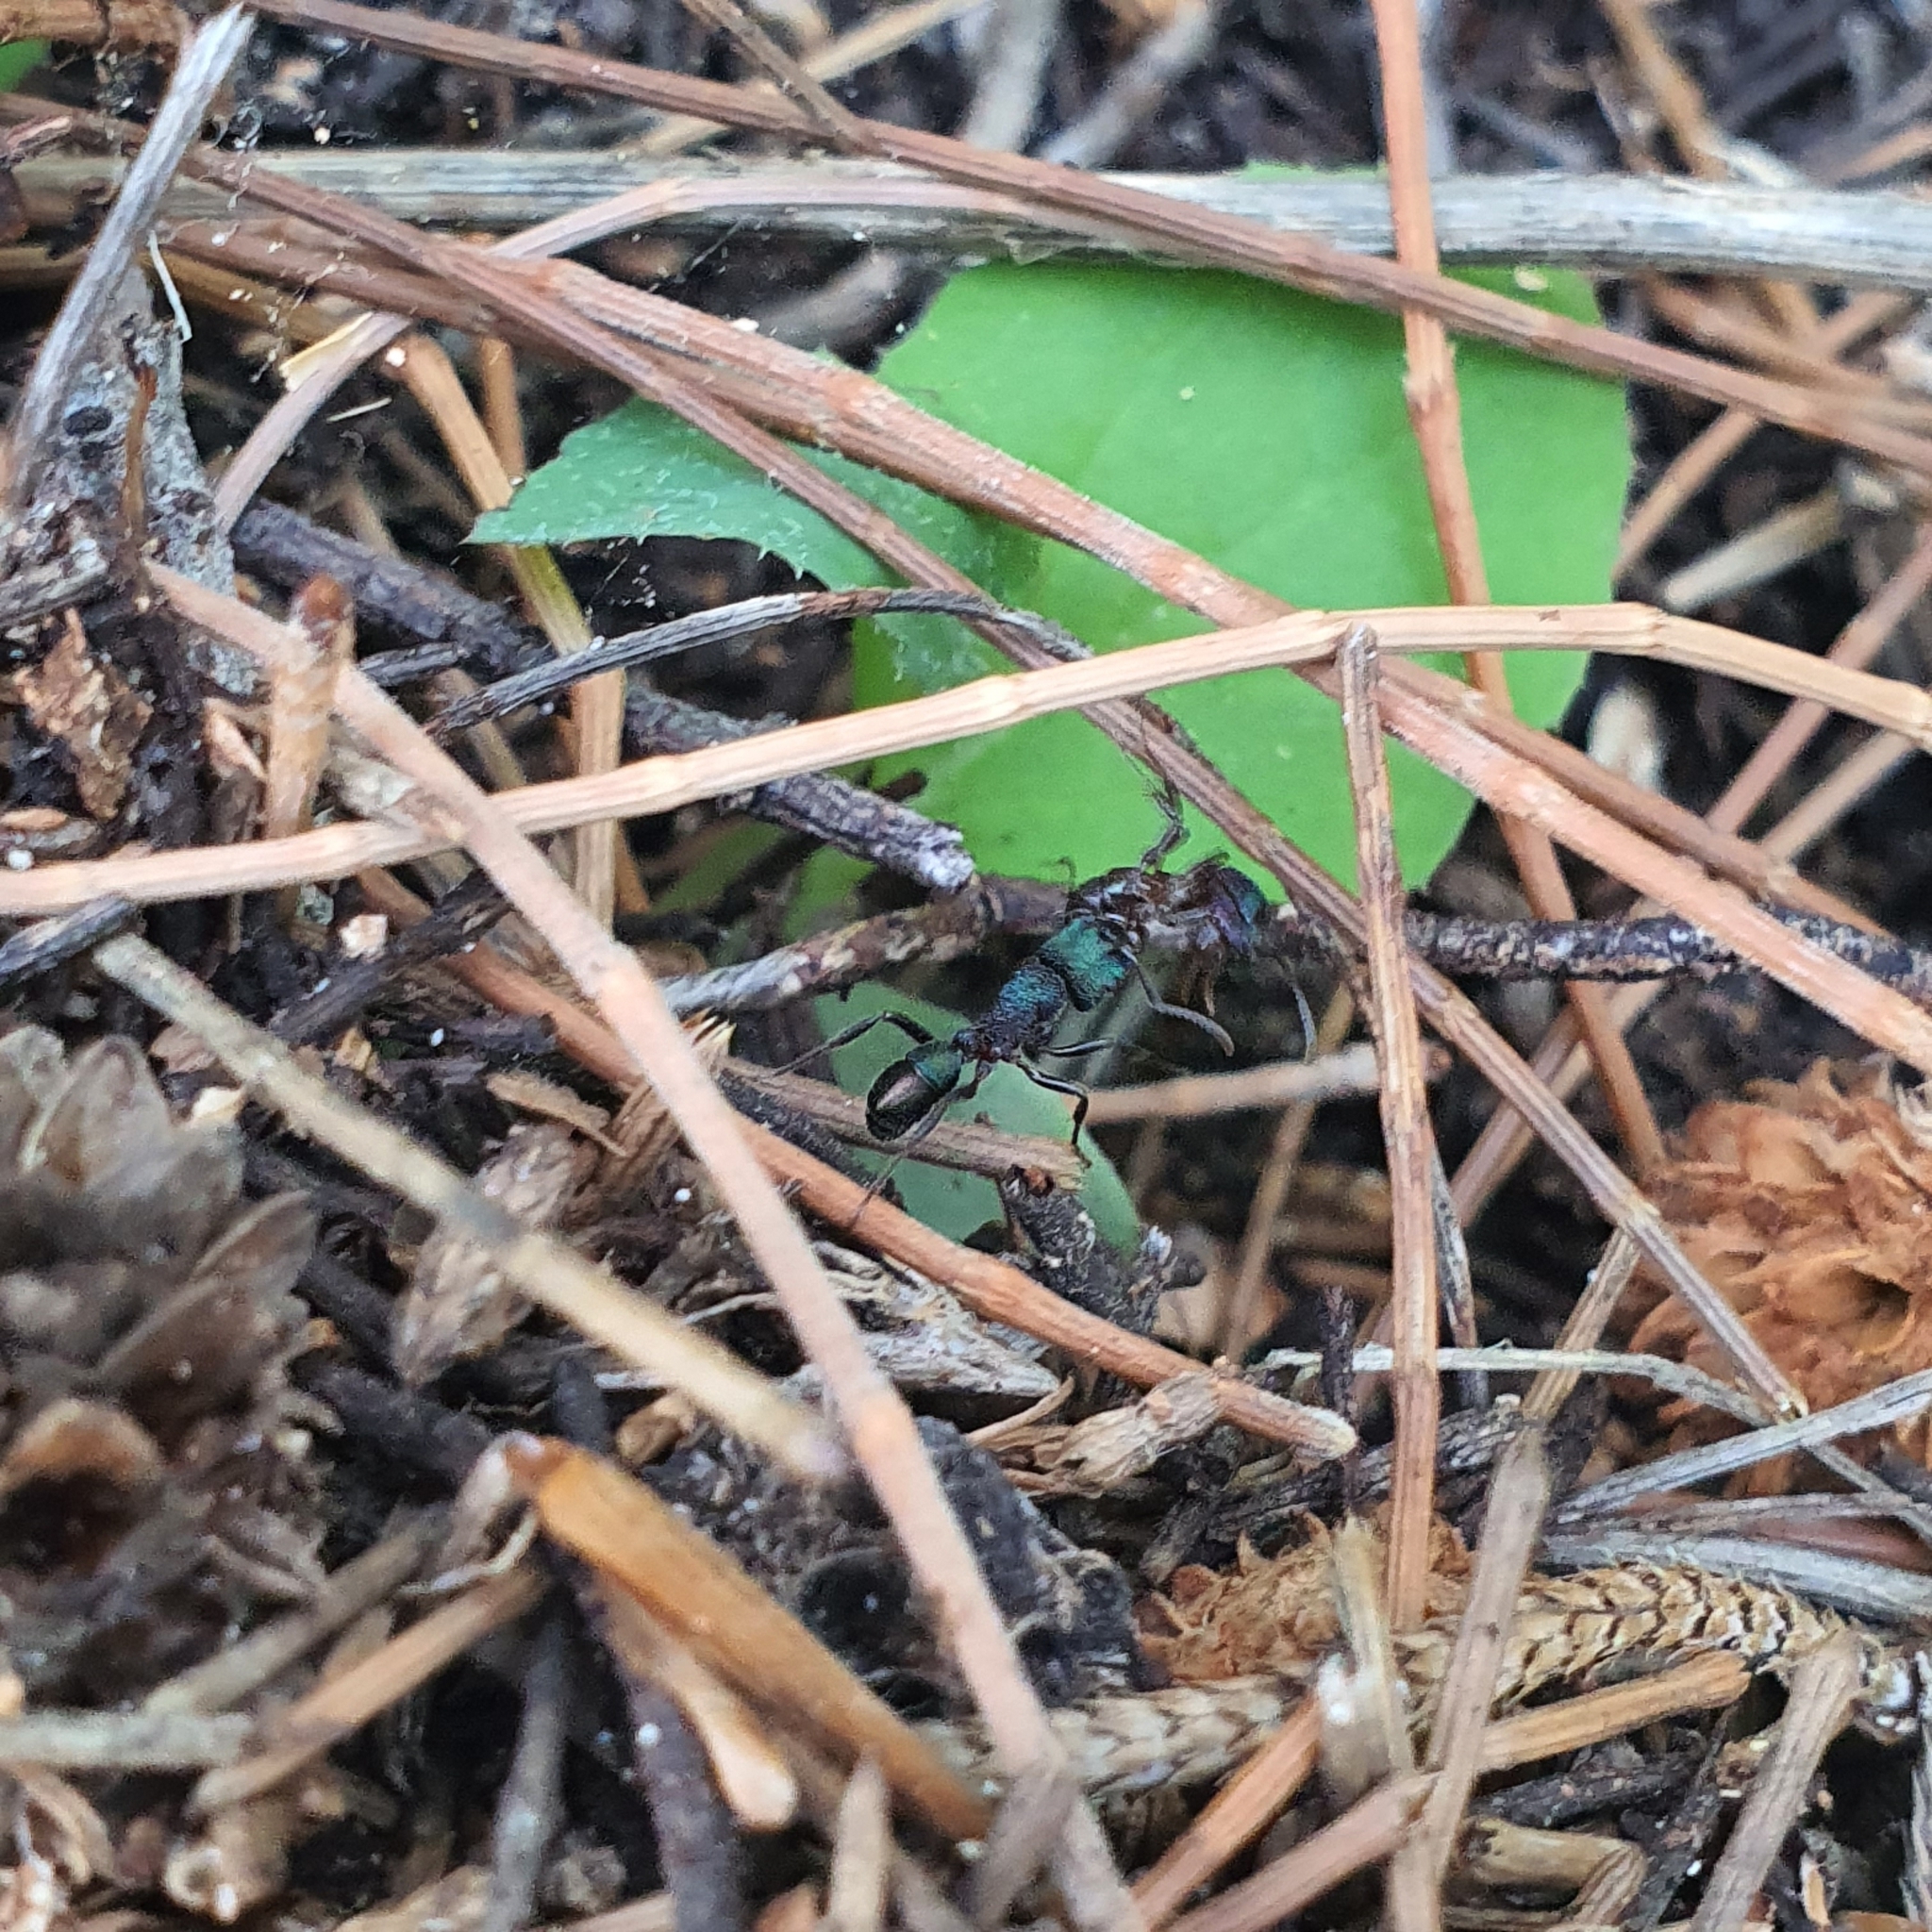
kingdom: Animalia
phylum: Arthropoda
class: Insecta
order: Hymenoptera
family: Formicidae
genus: Rhytidoponera
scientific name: Rhytidoponera metallica
